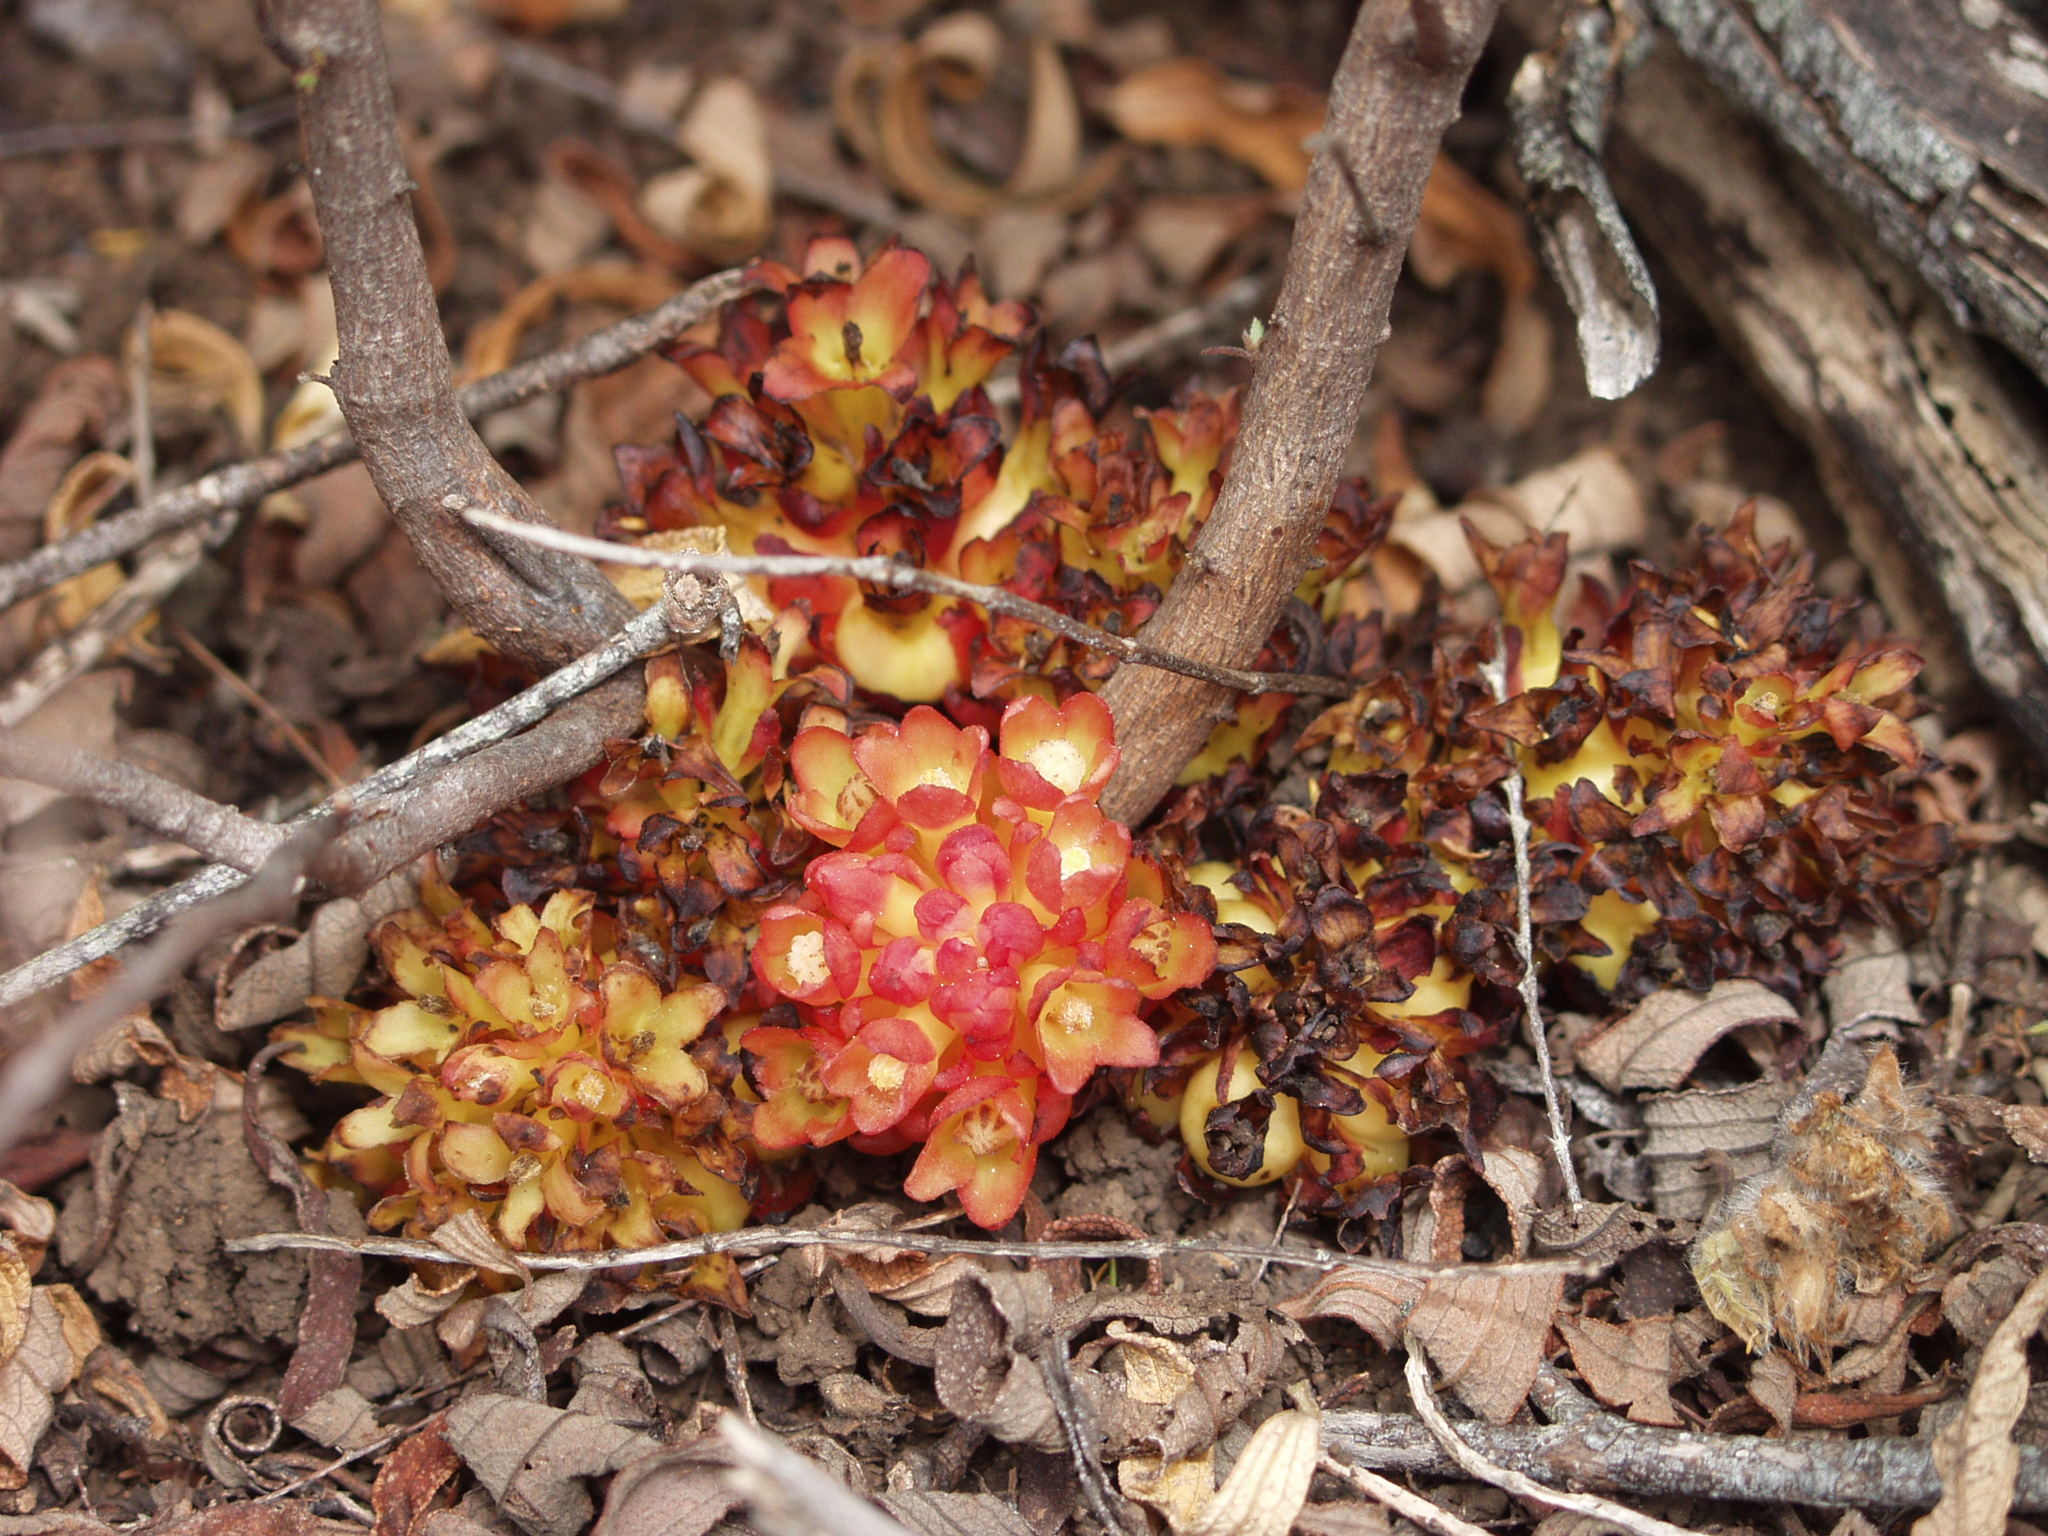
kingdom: Plantae
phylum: Tracheophyta
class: Magnoliopsida
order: Malvales
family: Cytinaceae
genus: Cytinus
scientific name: Cytinus hypocistis
